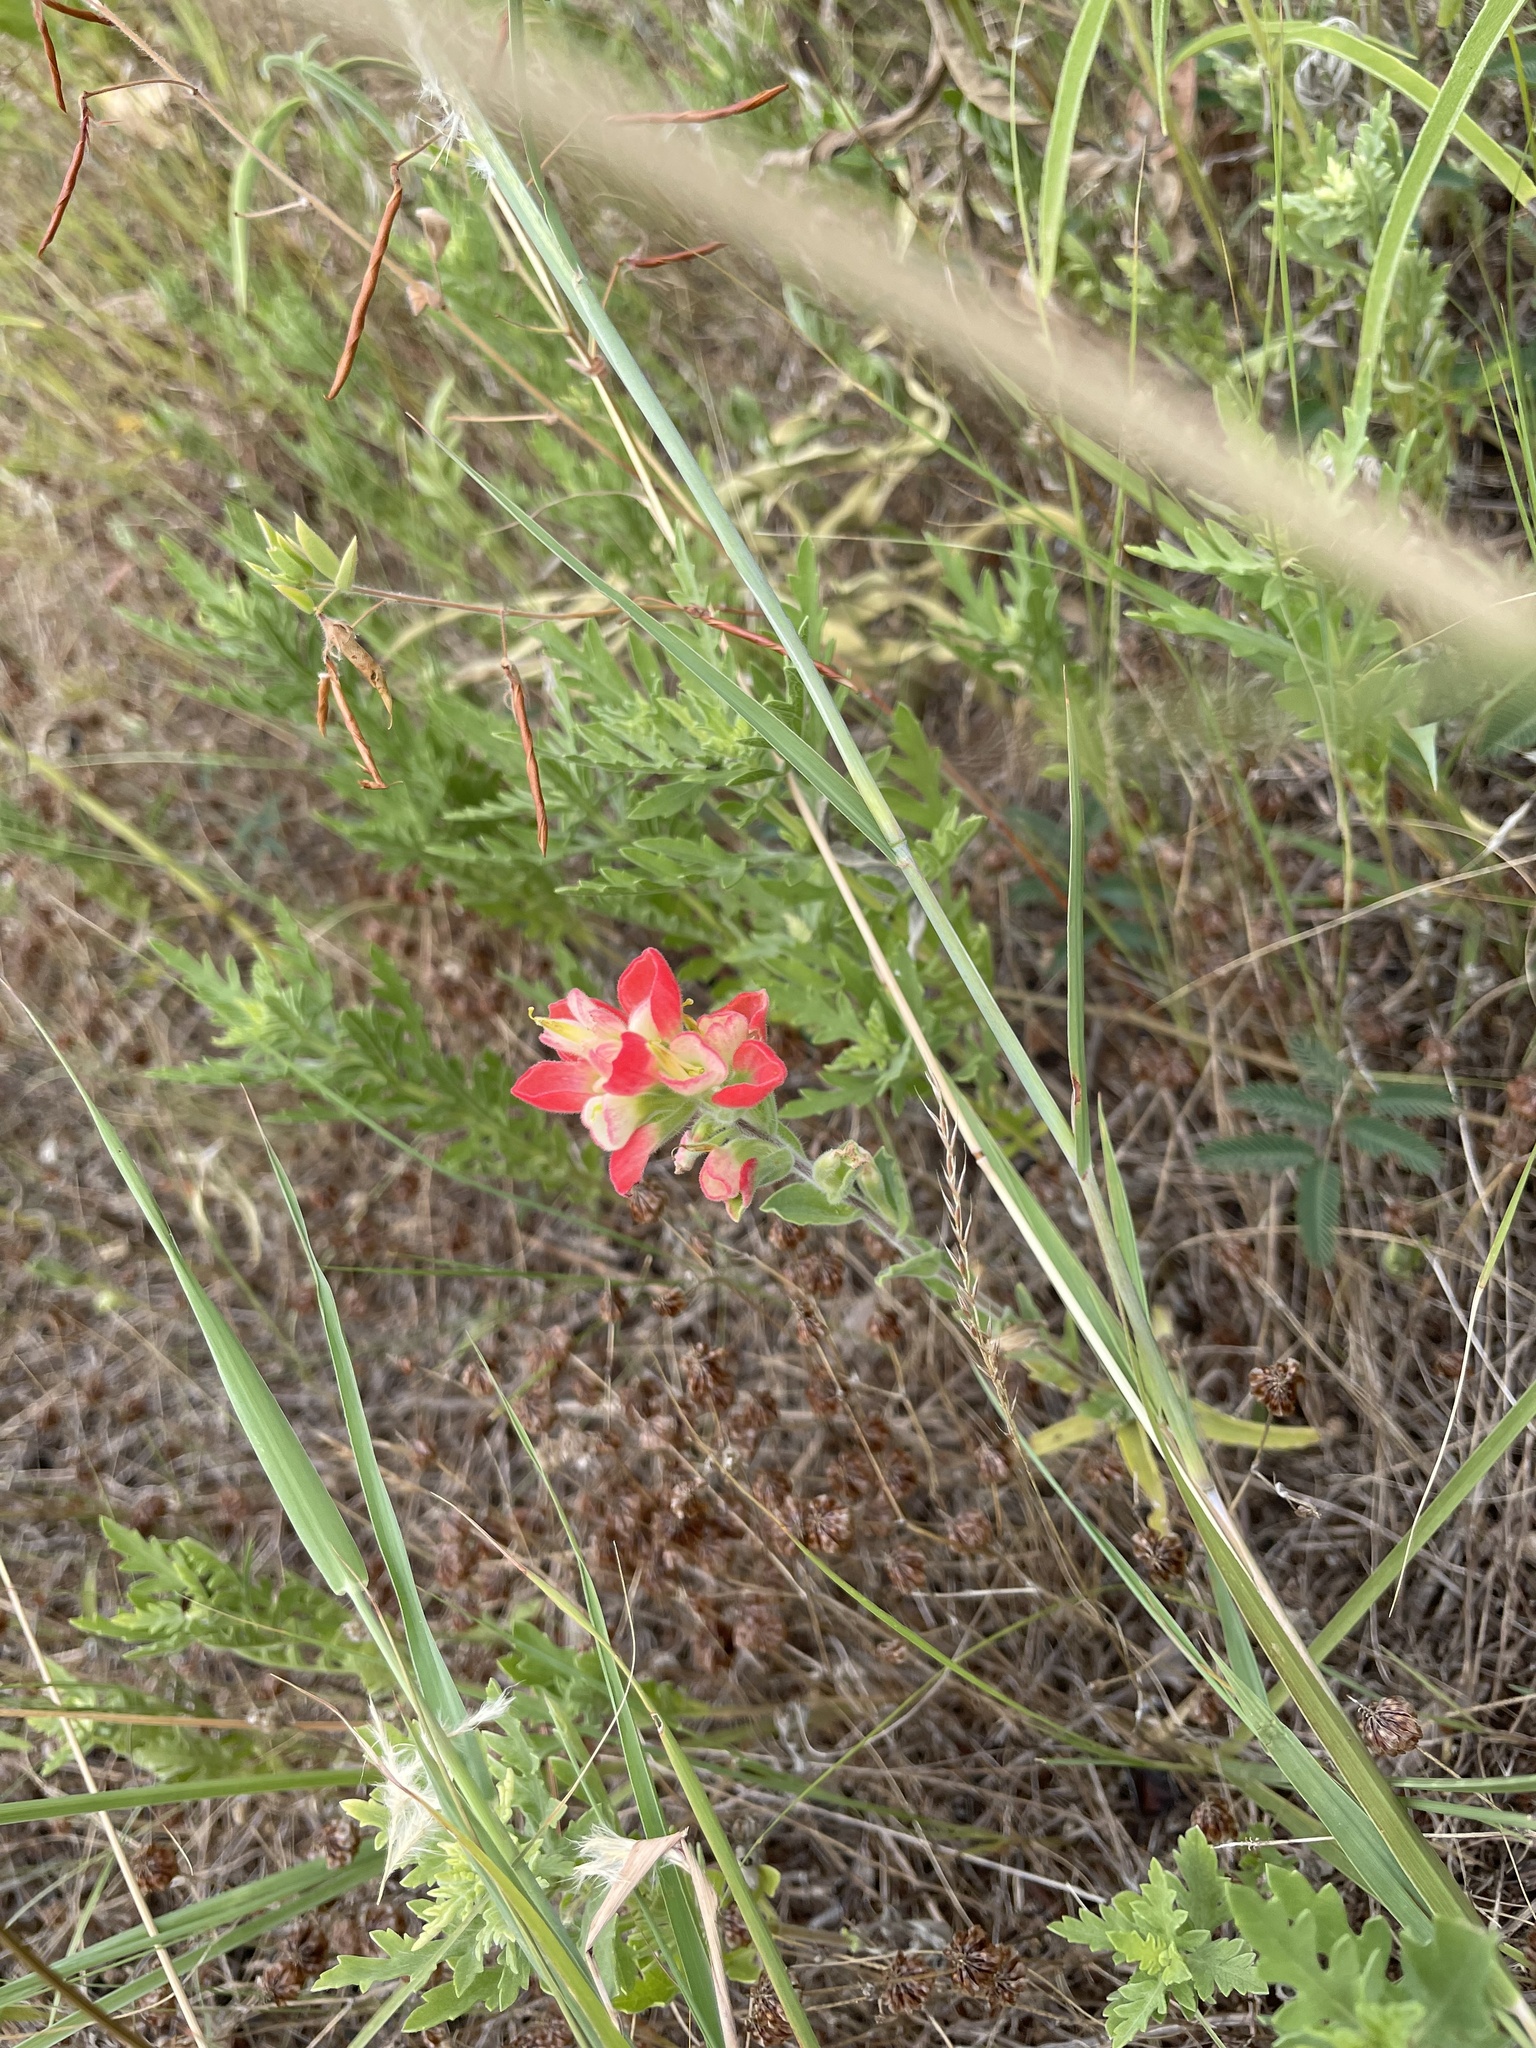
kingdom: Plantae
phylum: Tracheophyta
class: Magnoliopsida
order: Lamiales
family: Orobanchaceae
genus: Castilleja
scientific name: Castilleja indivisa
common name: Texas paintbrush
